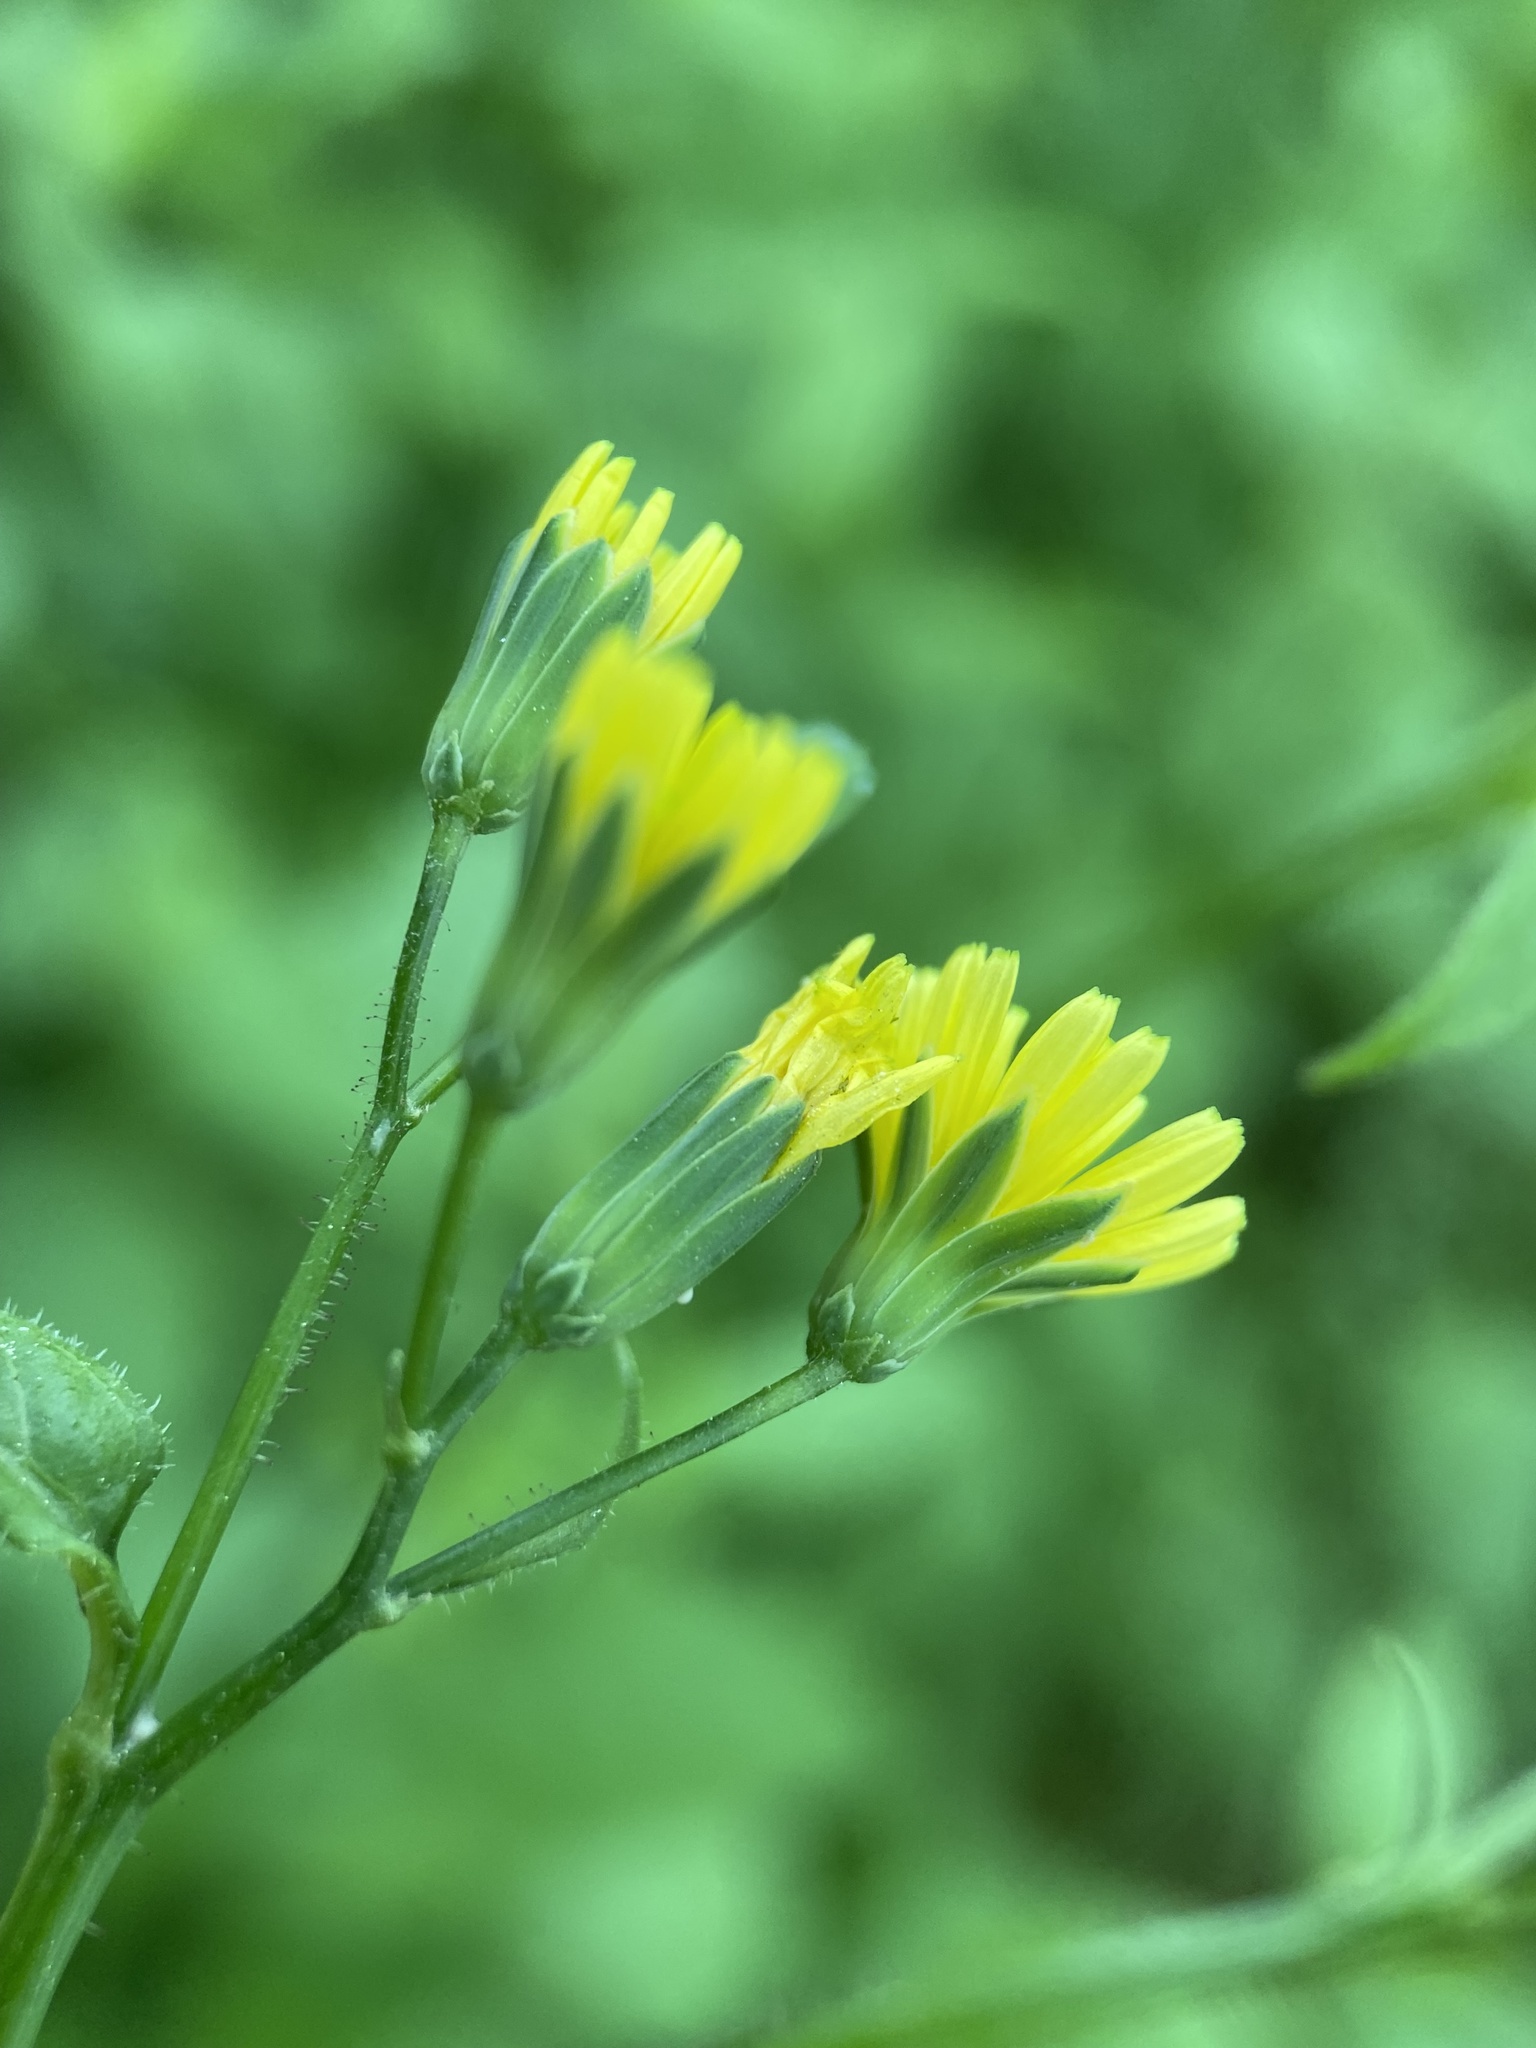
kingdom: Plantae
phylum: Tracheophyta
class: Magnoliopsida
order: Asterales
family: Asteraceae
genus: Lapsana
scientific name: Lapsana communis
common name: Nipplewort
